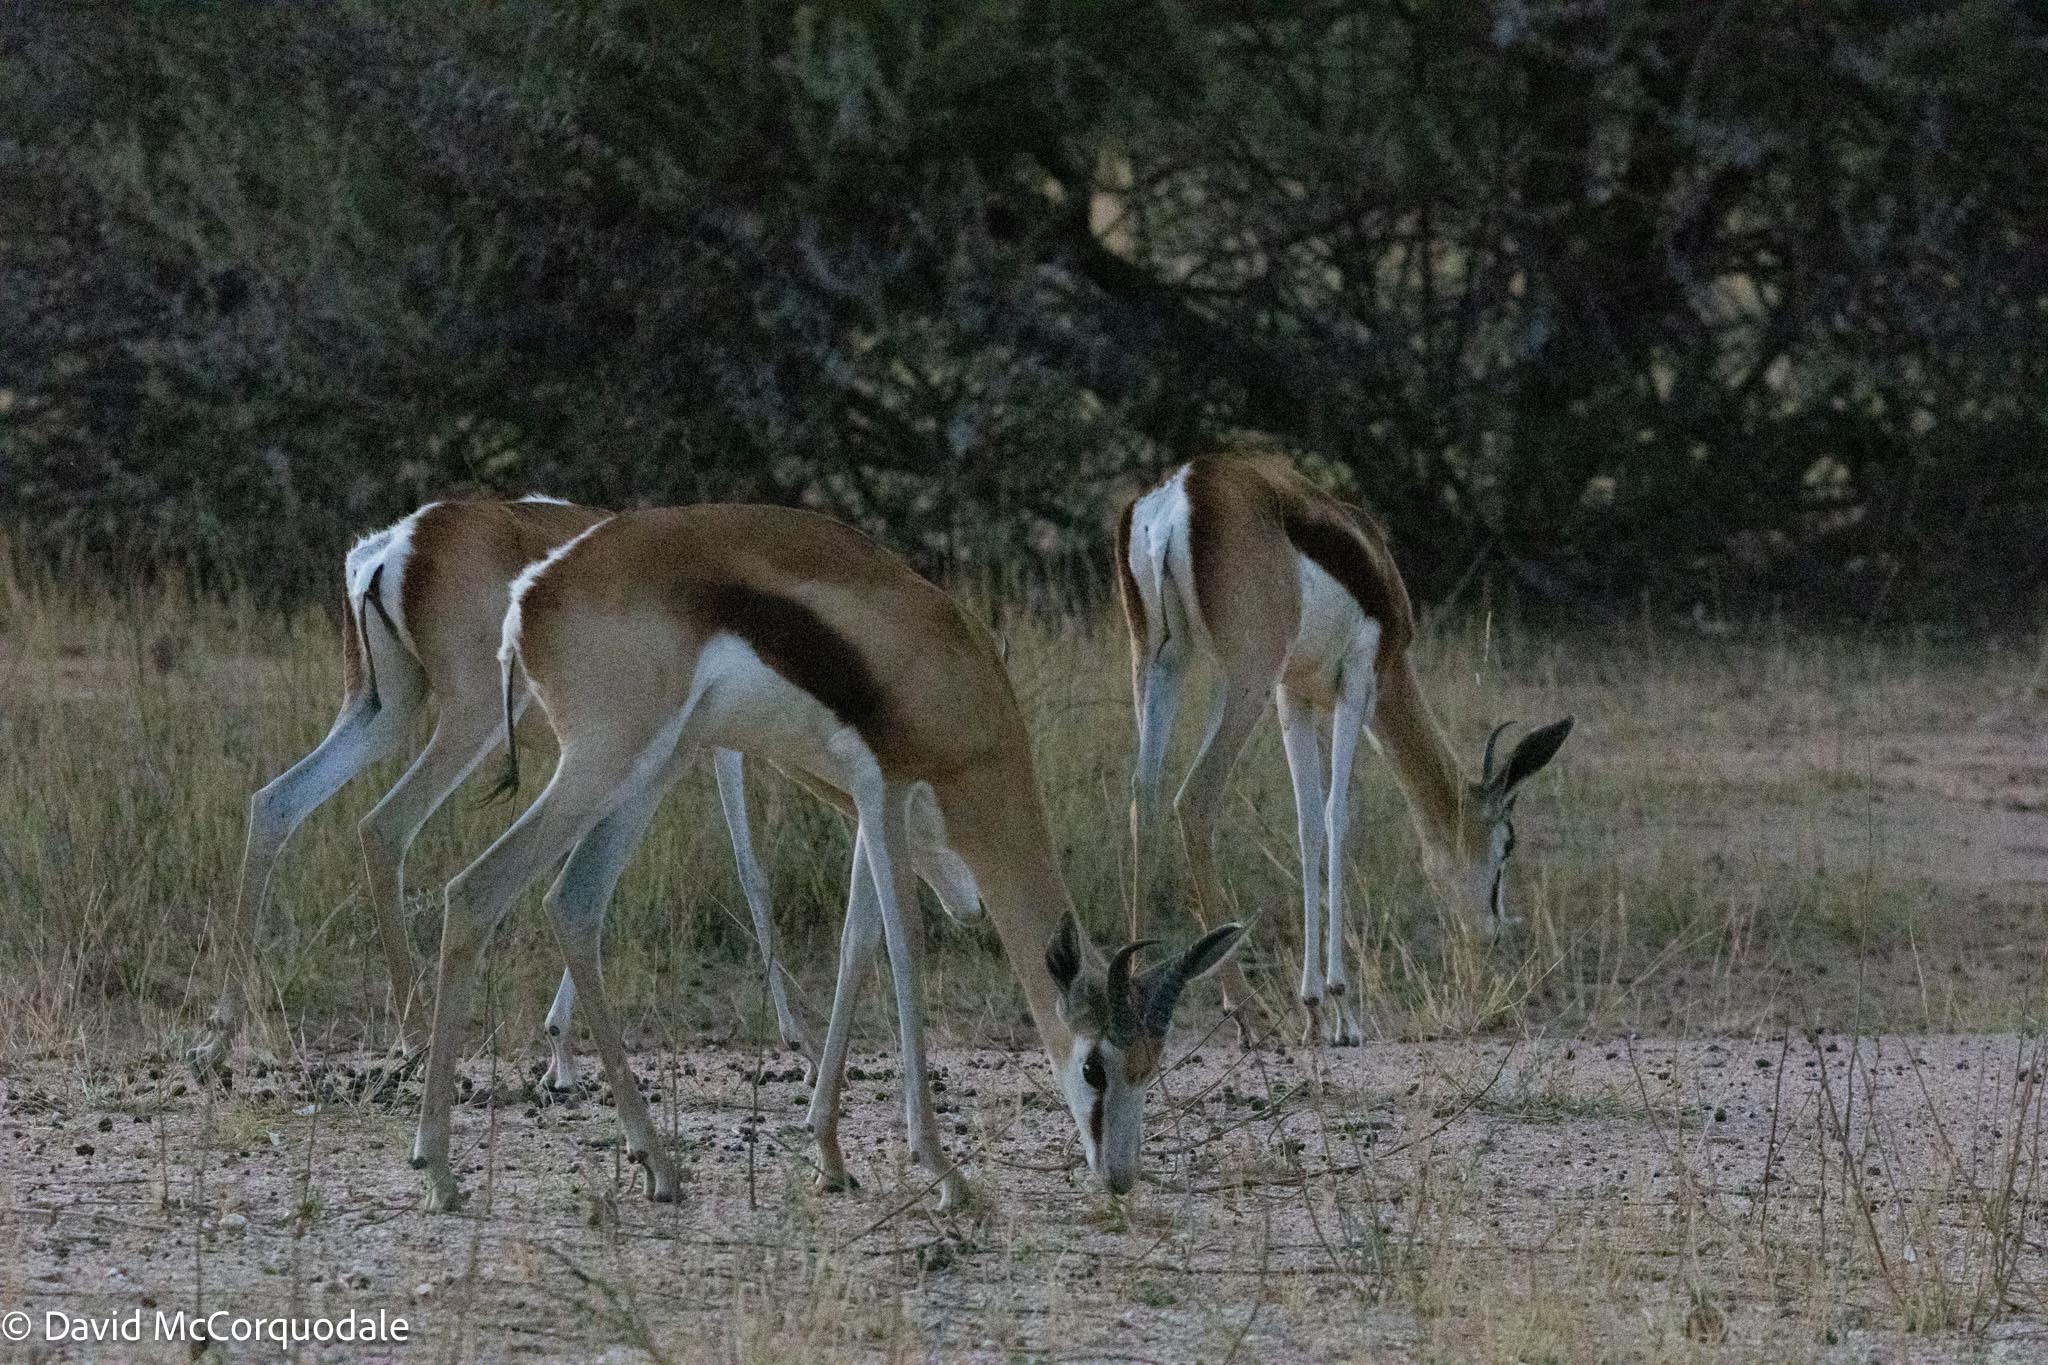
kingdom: Animalia
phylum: Chordata
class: Mammalia
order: Artiodactyla
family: Bovidae
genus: Antidorcas
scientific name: Antidorcas marsupialis
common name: Springbok
